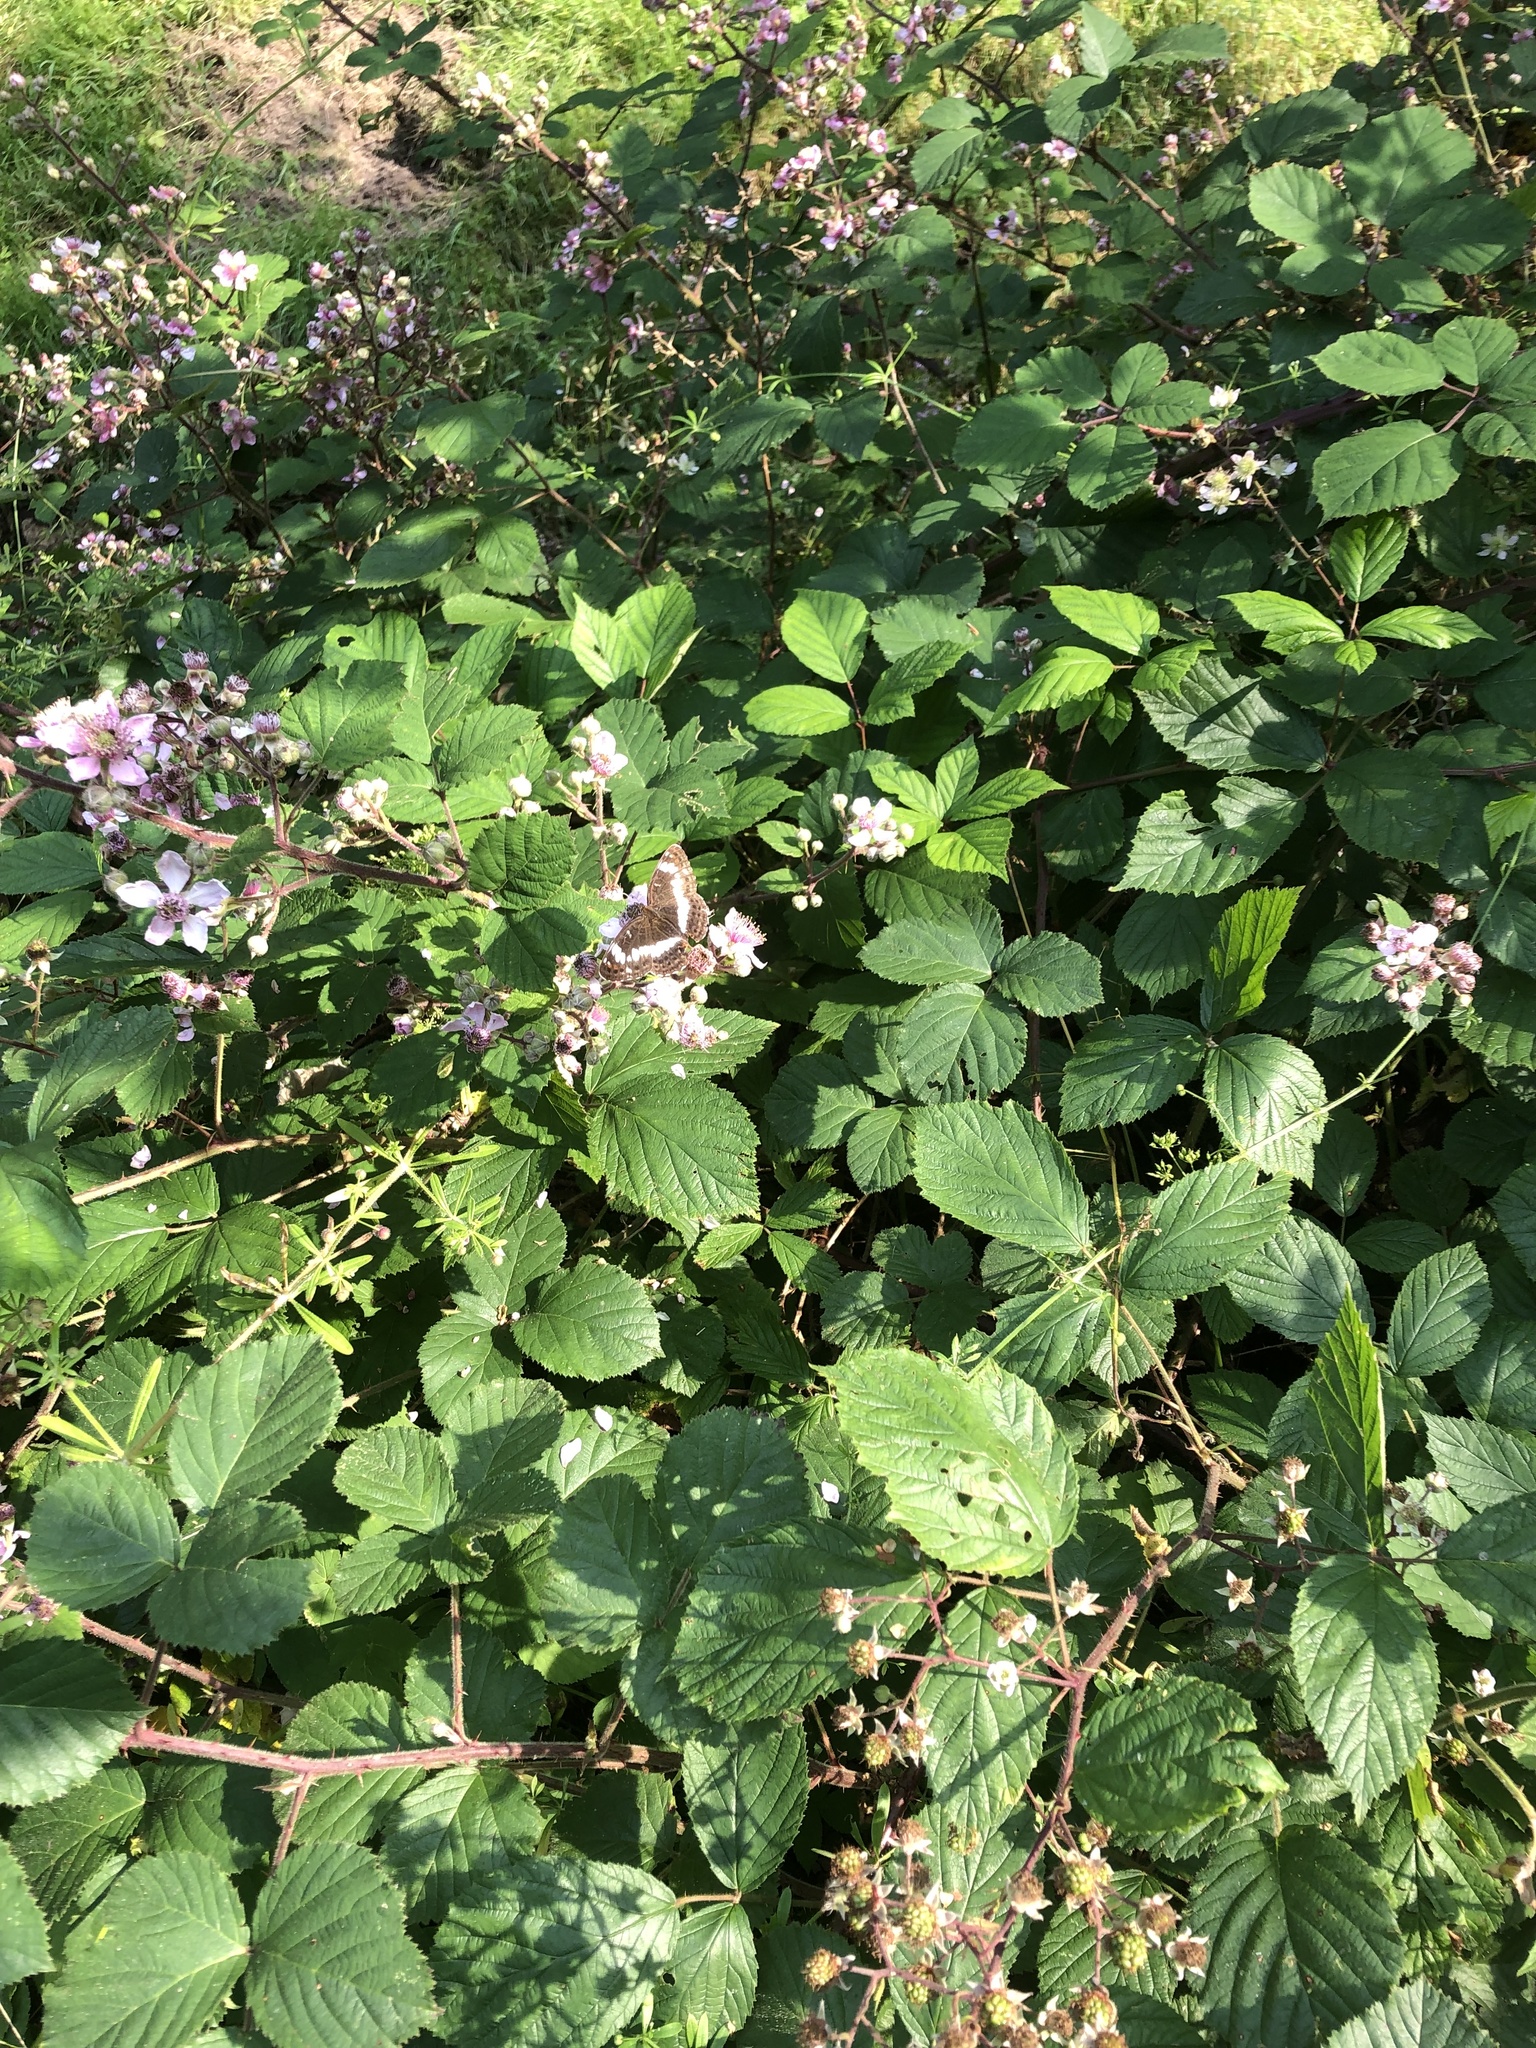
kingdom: Animalia
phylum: Arthropoda
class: Insecta
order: Lepidoptera
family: Nymphalidae
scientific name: Nymphalidae
